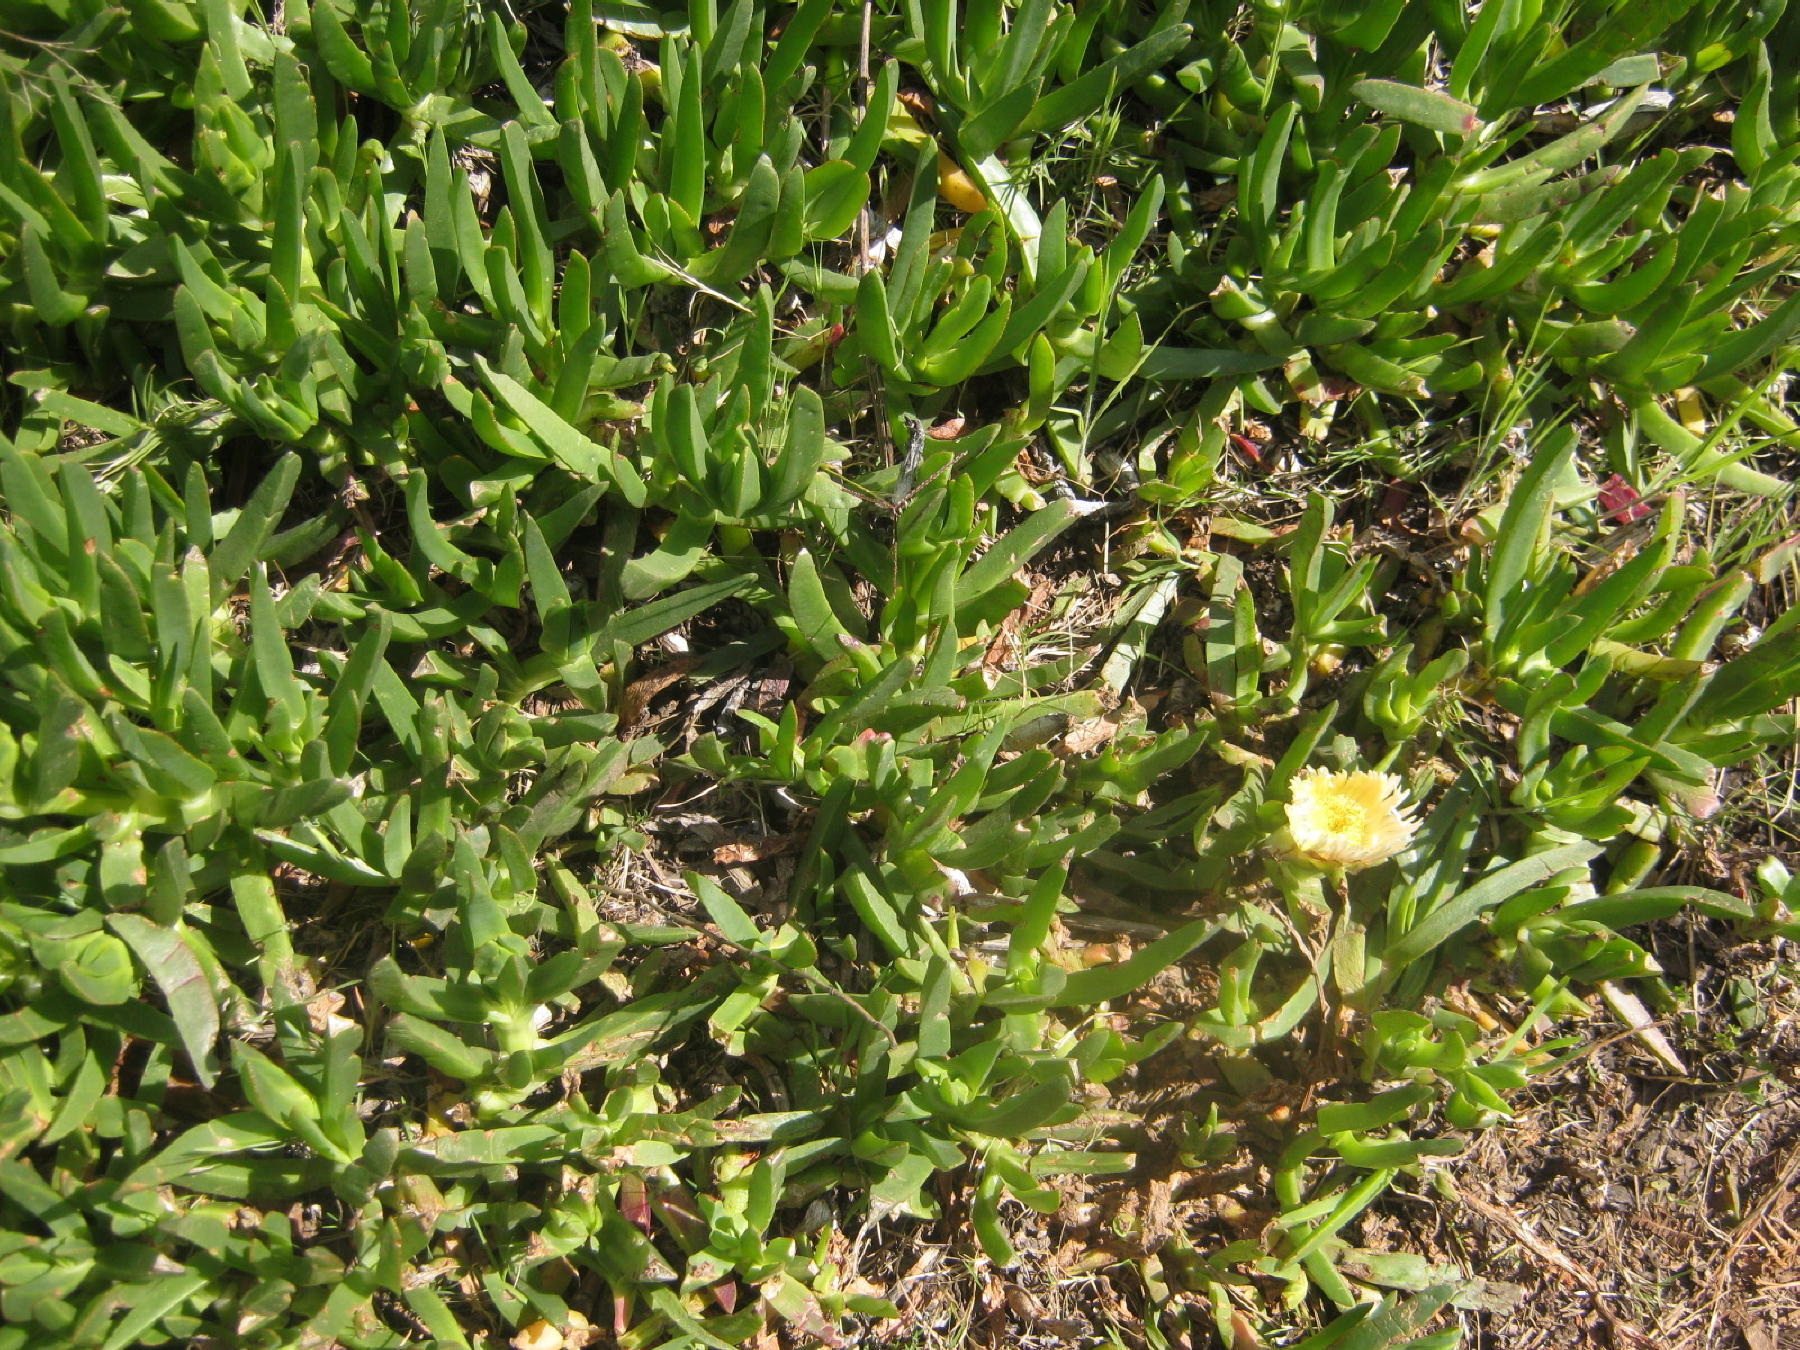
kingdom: Plantae
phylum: Tracheophyta
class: Magnoliopsida
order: Caryophyllales
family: Aizoaceae
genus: Carpobrotus
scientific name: Carpobrotus edulis
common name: Hottentot-fig
